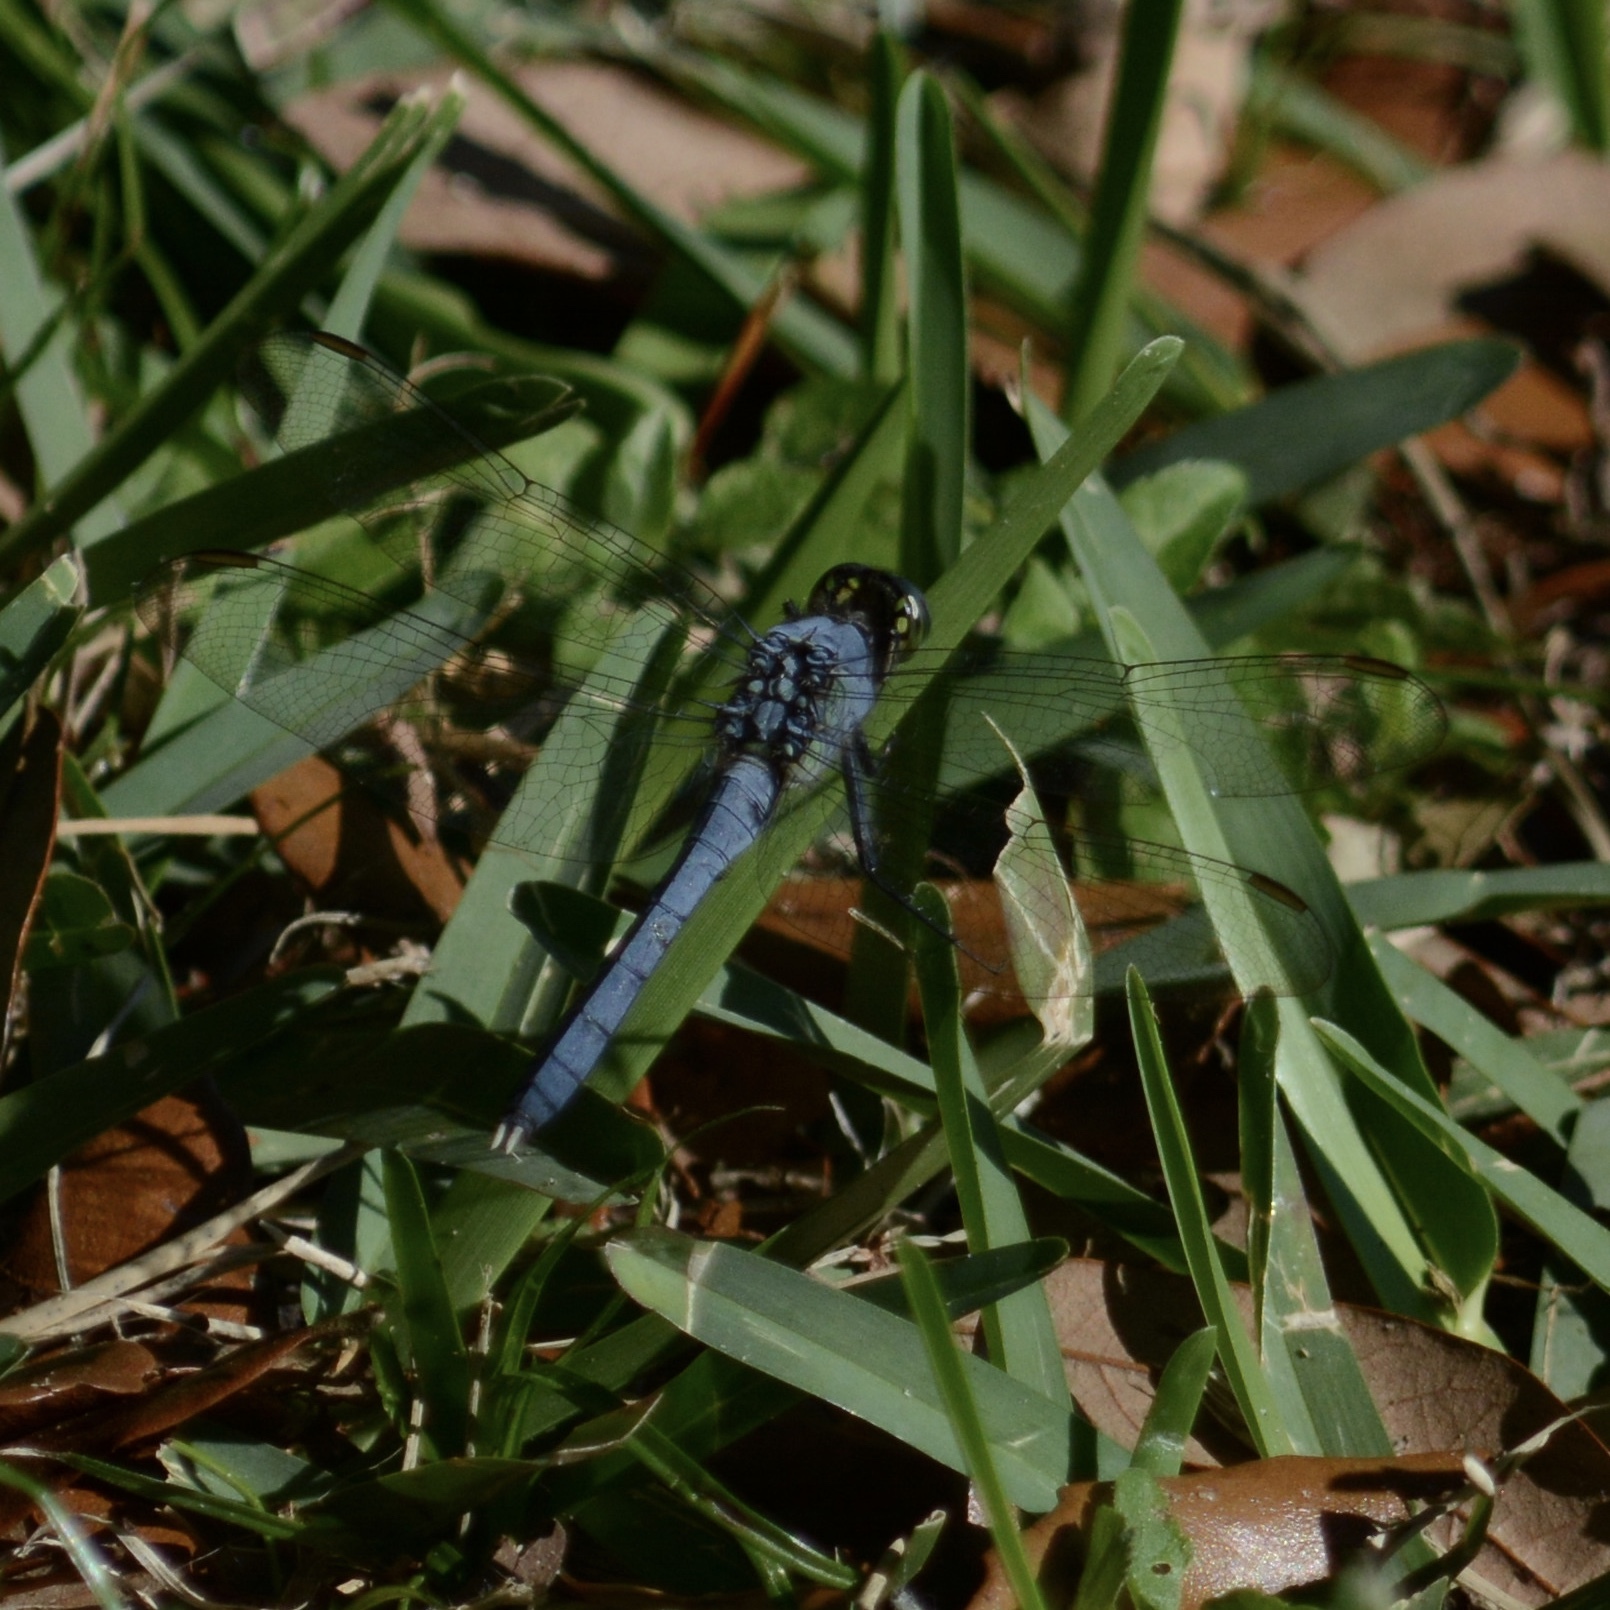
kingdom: Animalia
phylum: Arthropoda
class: Insecta
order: Odonata
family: Libellulidae
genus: Erythemis
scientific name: Erythemis simplicicollis
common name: Eastern pondhawk
